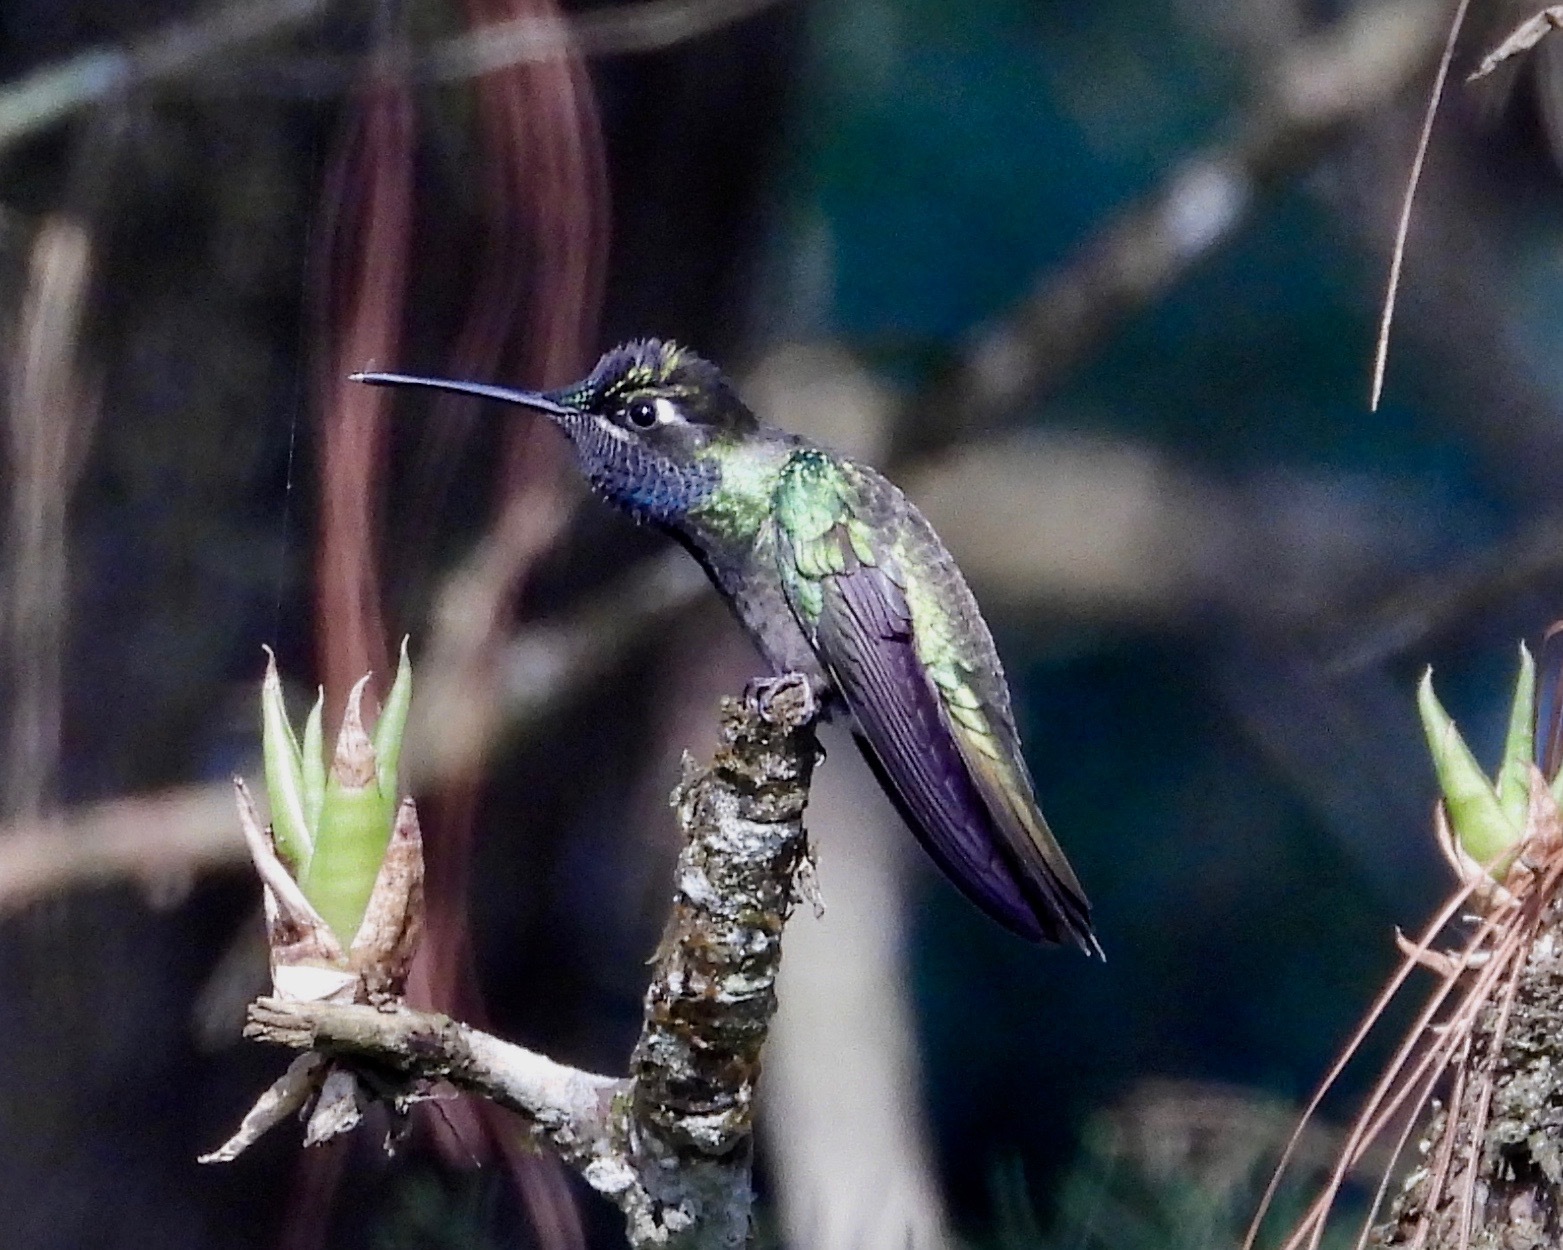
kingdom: Animalia
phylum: Chordata
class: Aves
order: Apodiformes
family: Trochilidae
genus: Eugenes
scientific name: Eugenes fulgens
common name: Magnificent hummingbird
